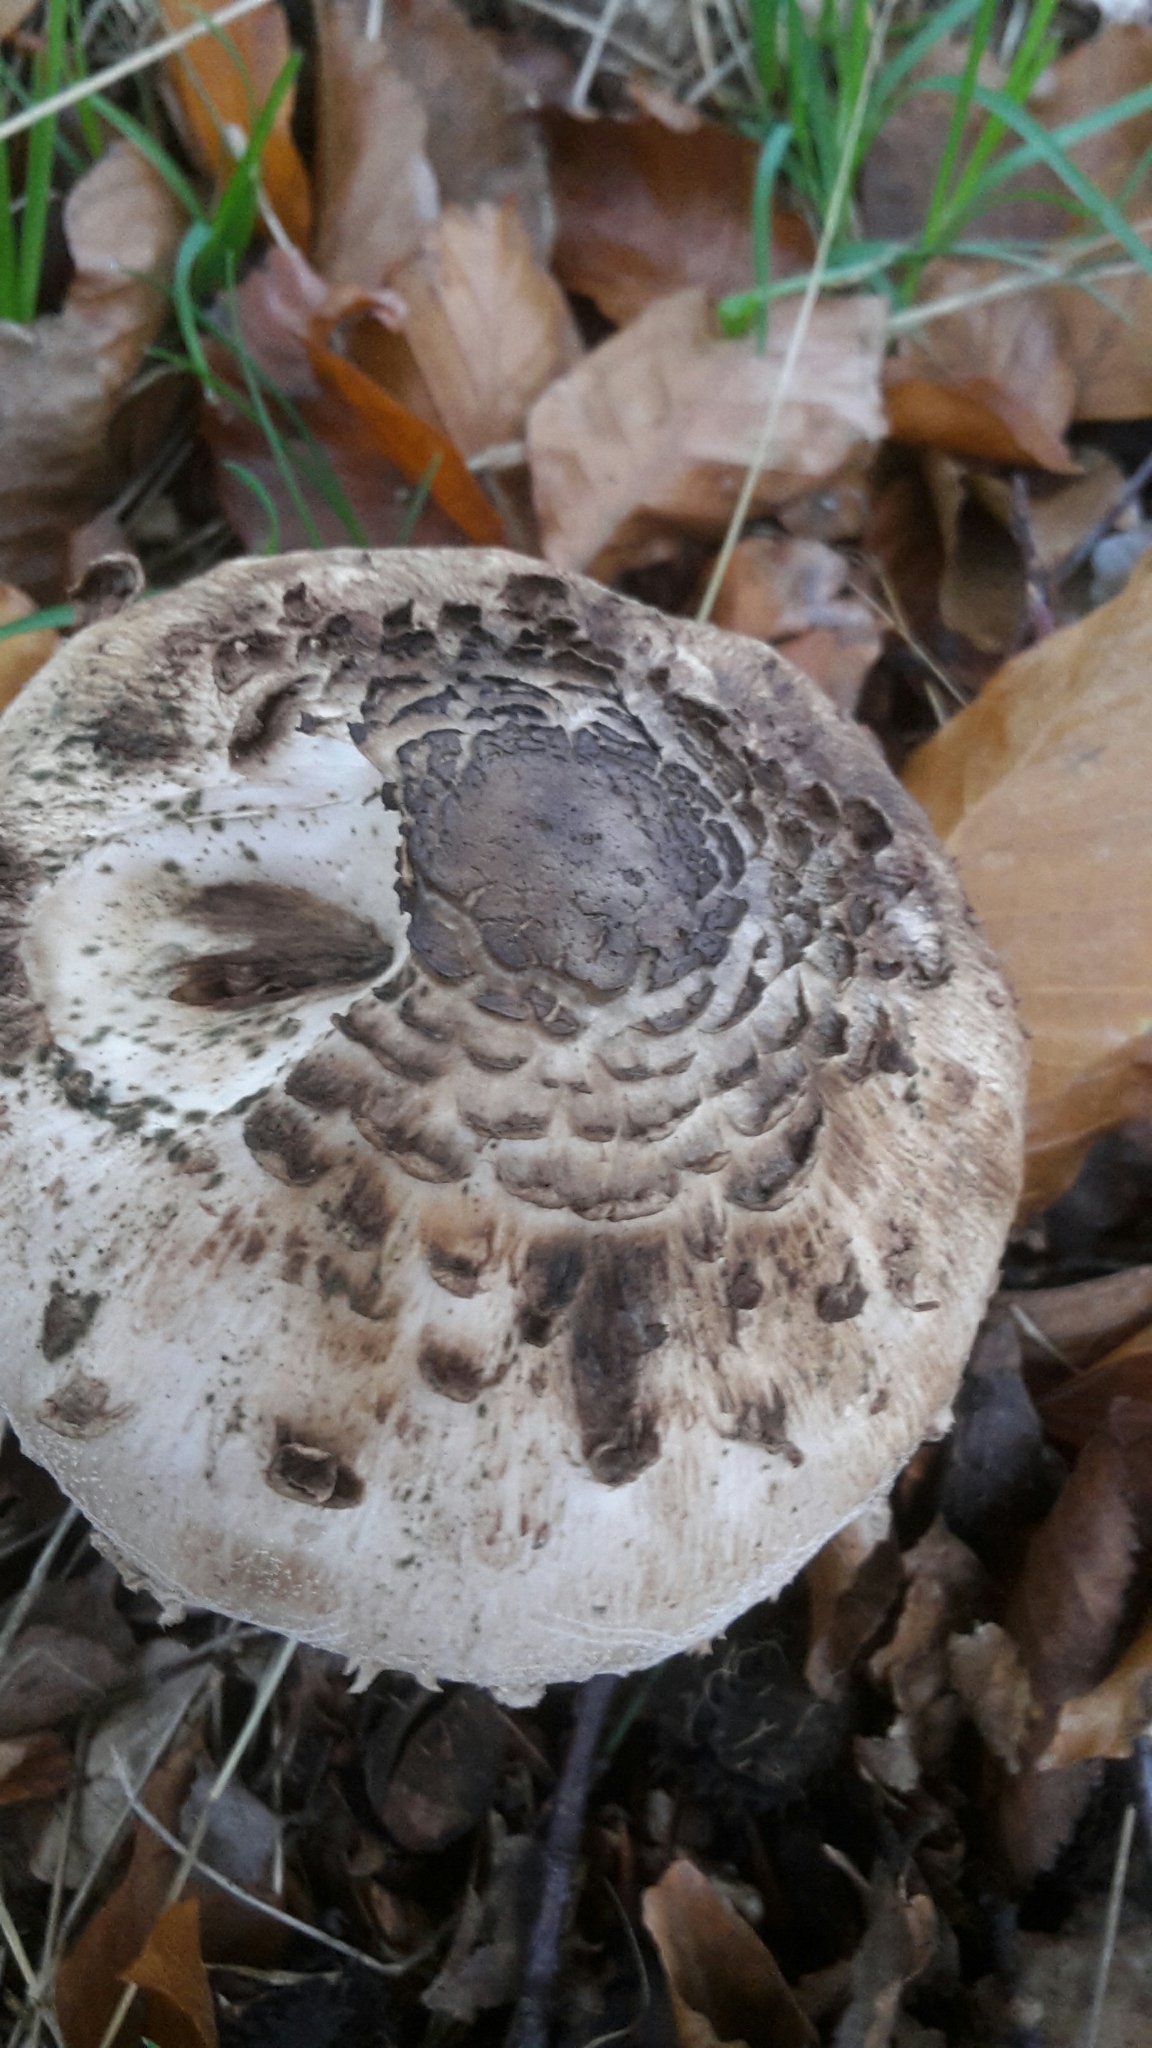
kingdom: Fungi
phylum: Basidiomycota
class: Agaricomycetes
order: Agaricales
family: Agaricaceae
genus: Macrolepiota
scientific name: Macrolepiota procera
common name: Parasol
